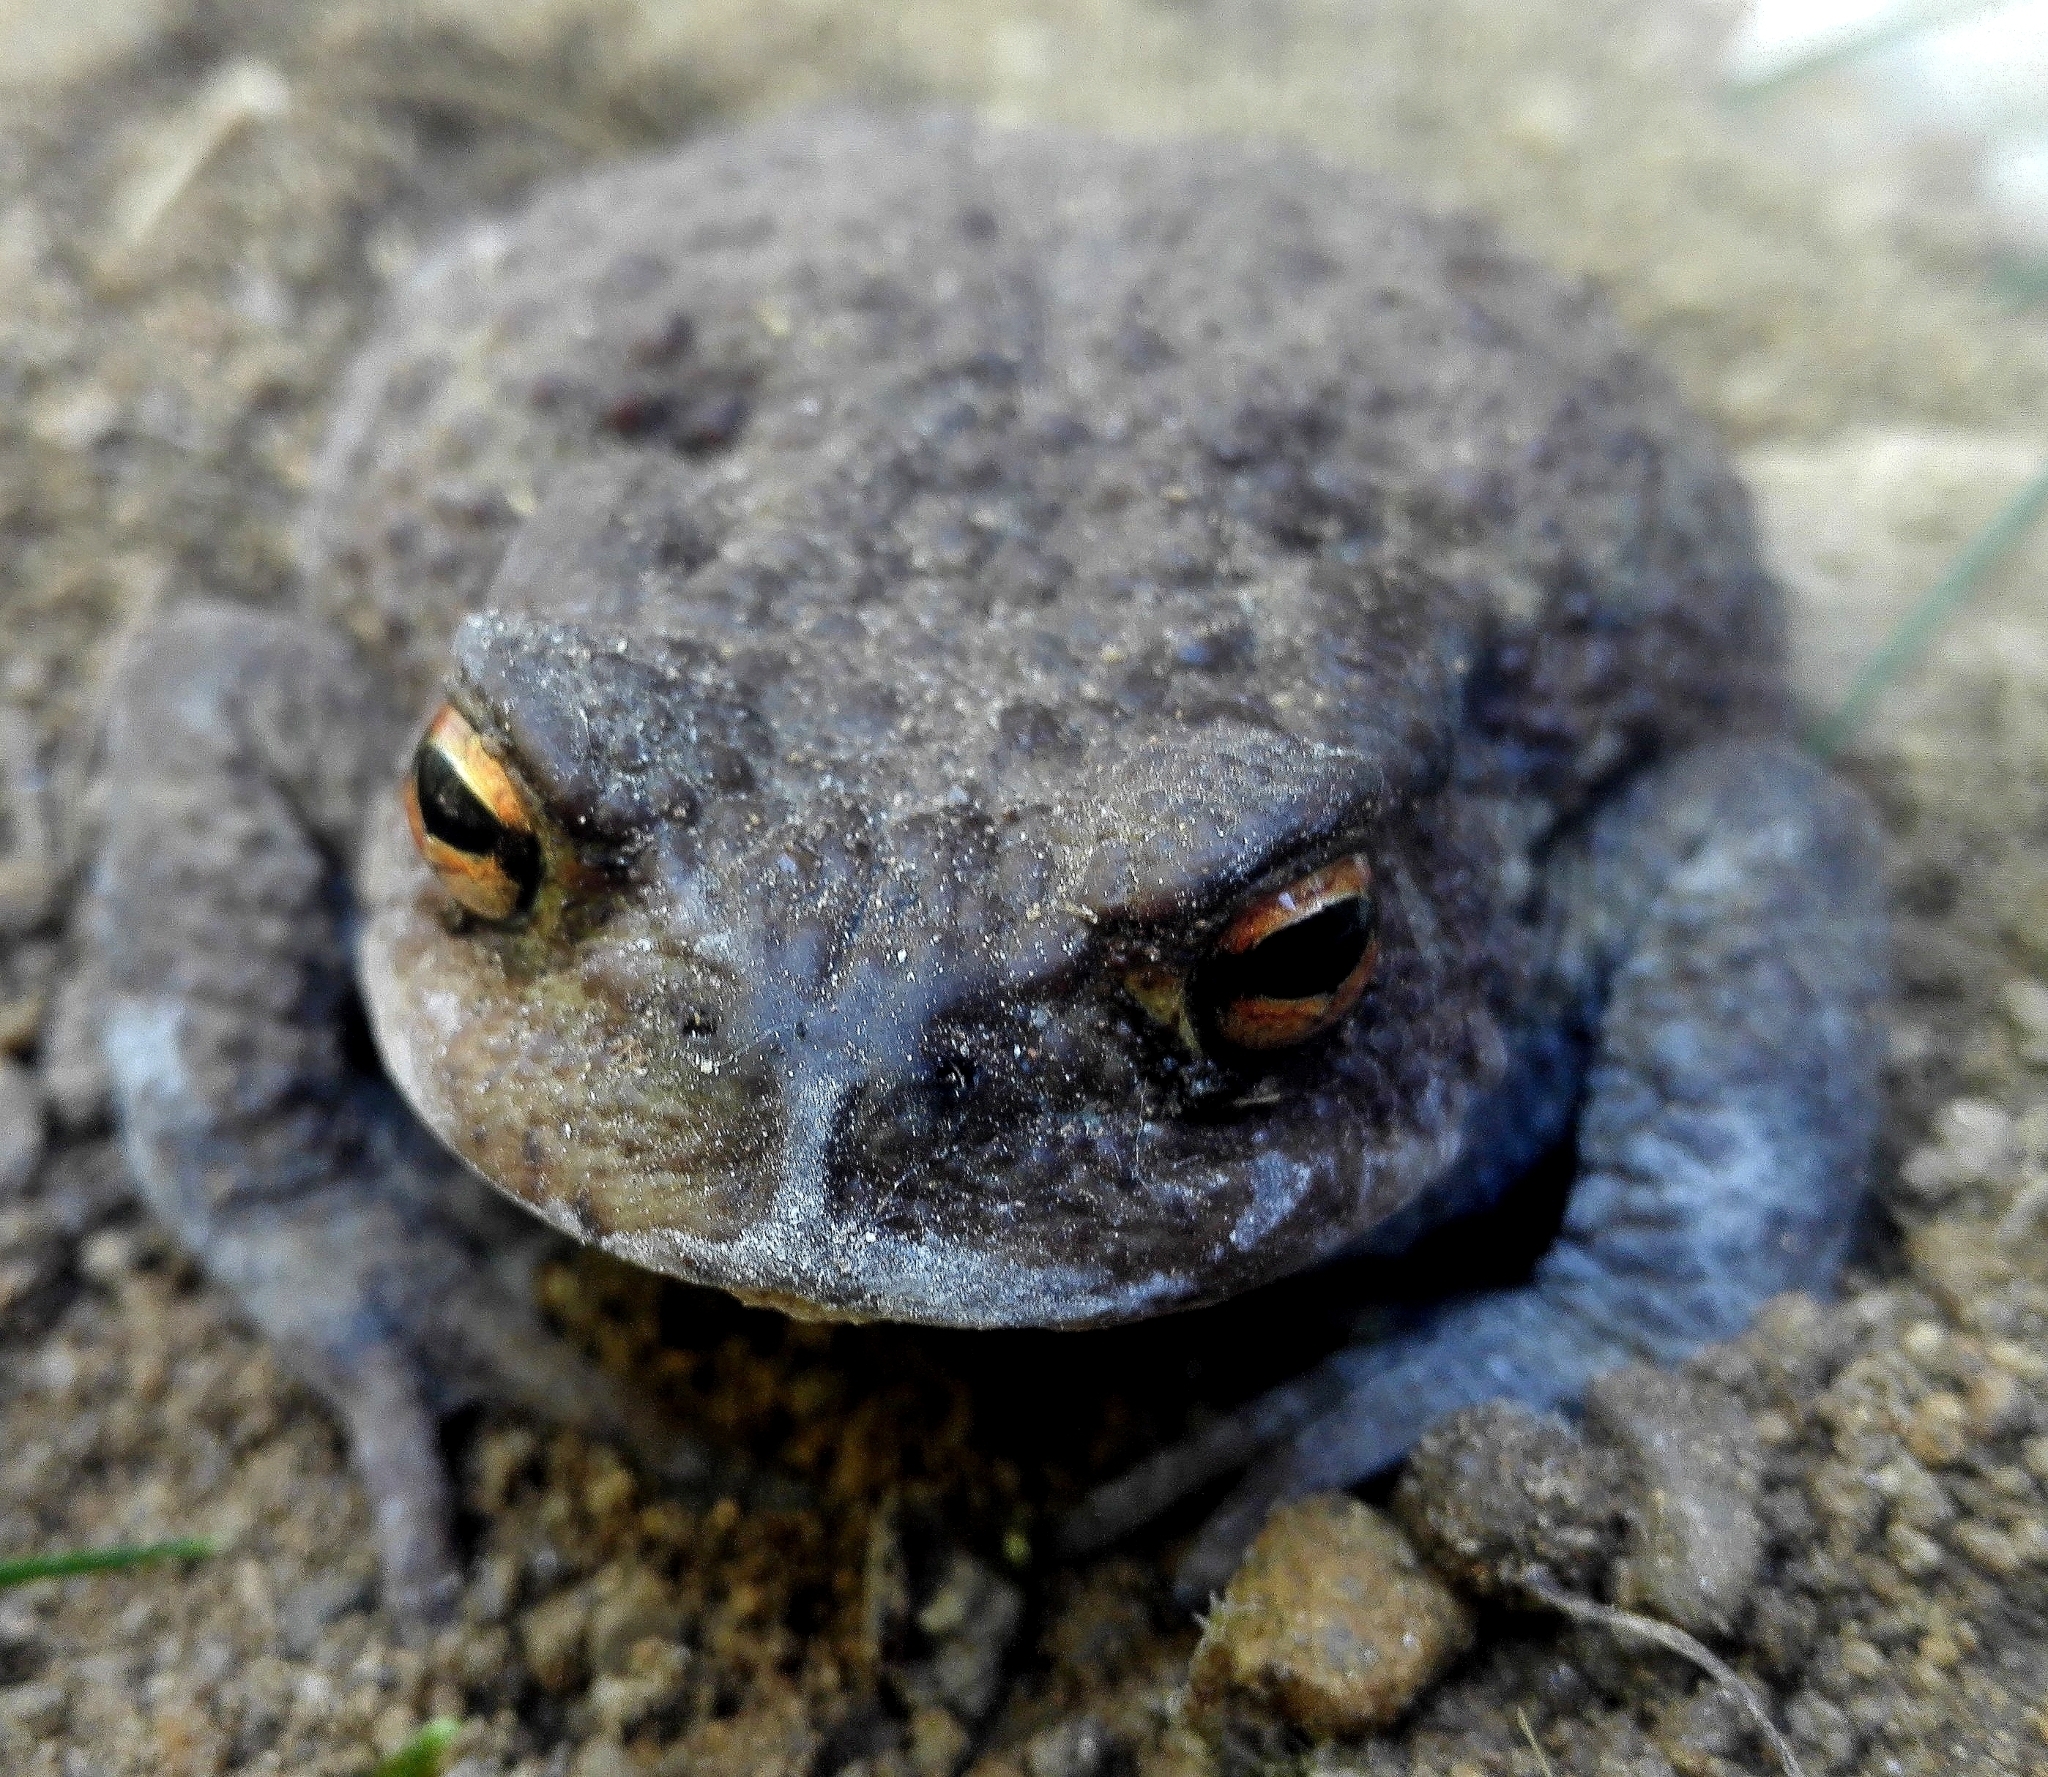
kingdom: Animalia
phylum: Chordata
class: Amphibia
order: Anura
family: Bufonidae
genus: Bufo
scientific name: Bufo bufo
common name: Common toad
